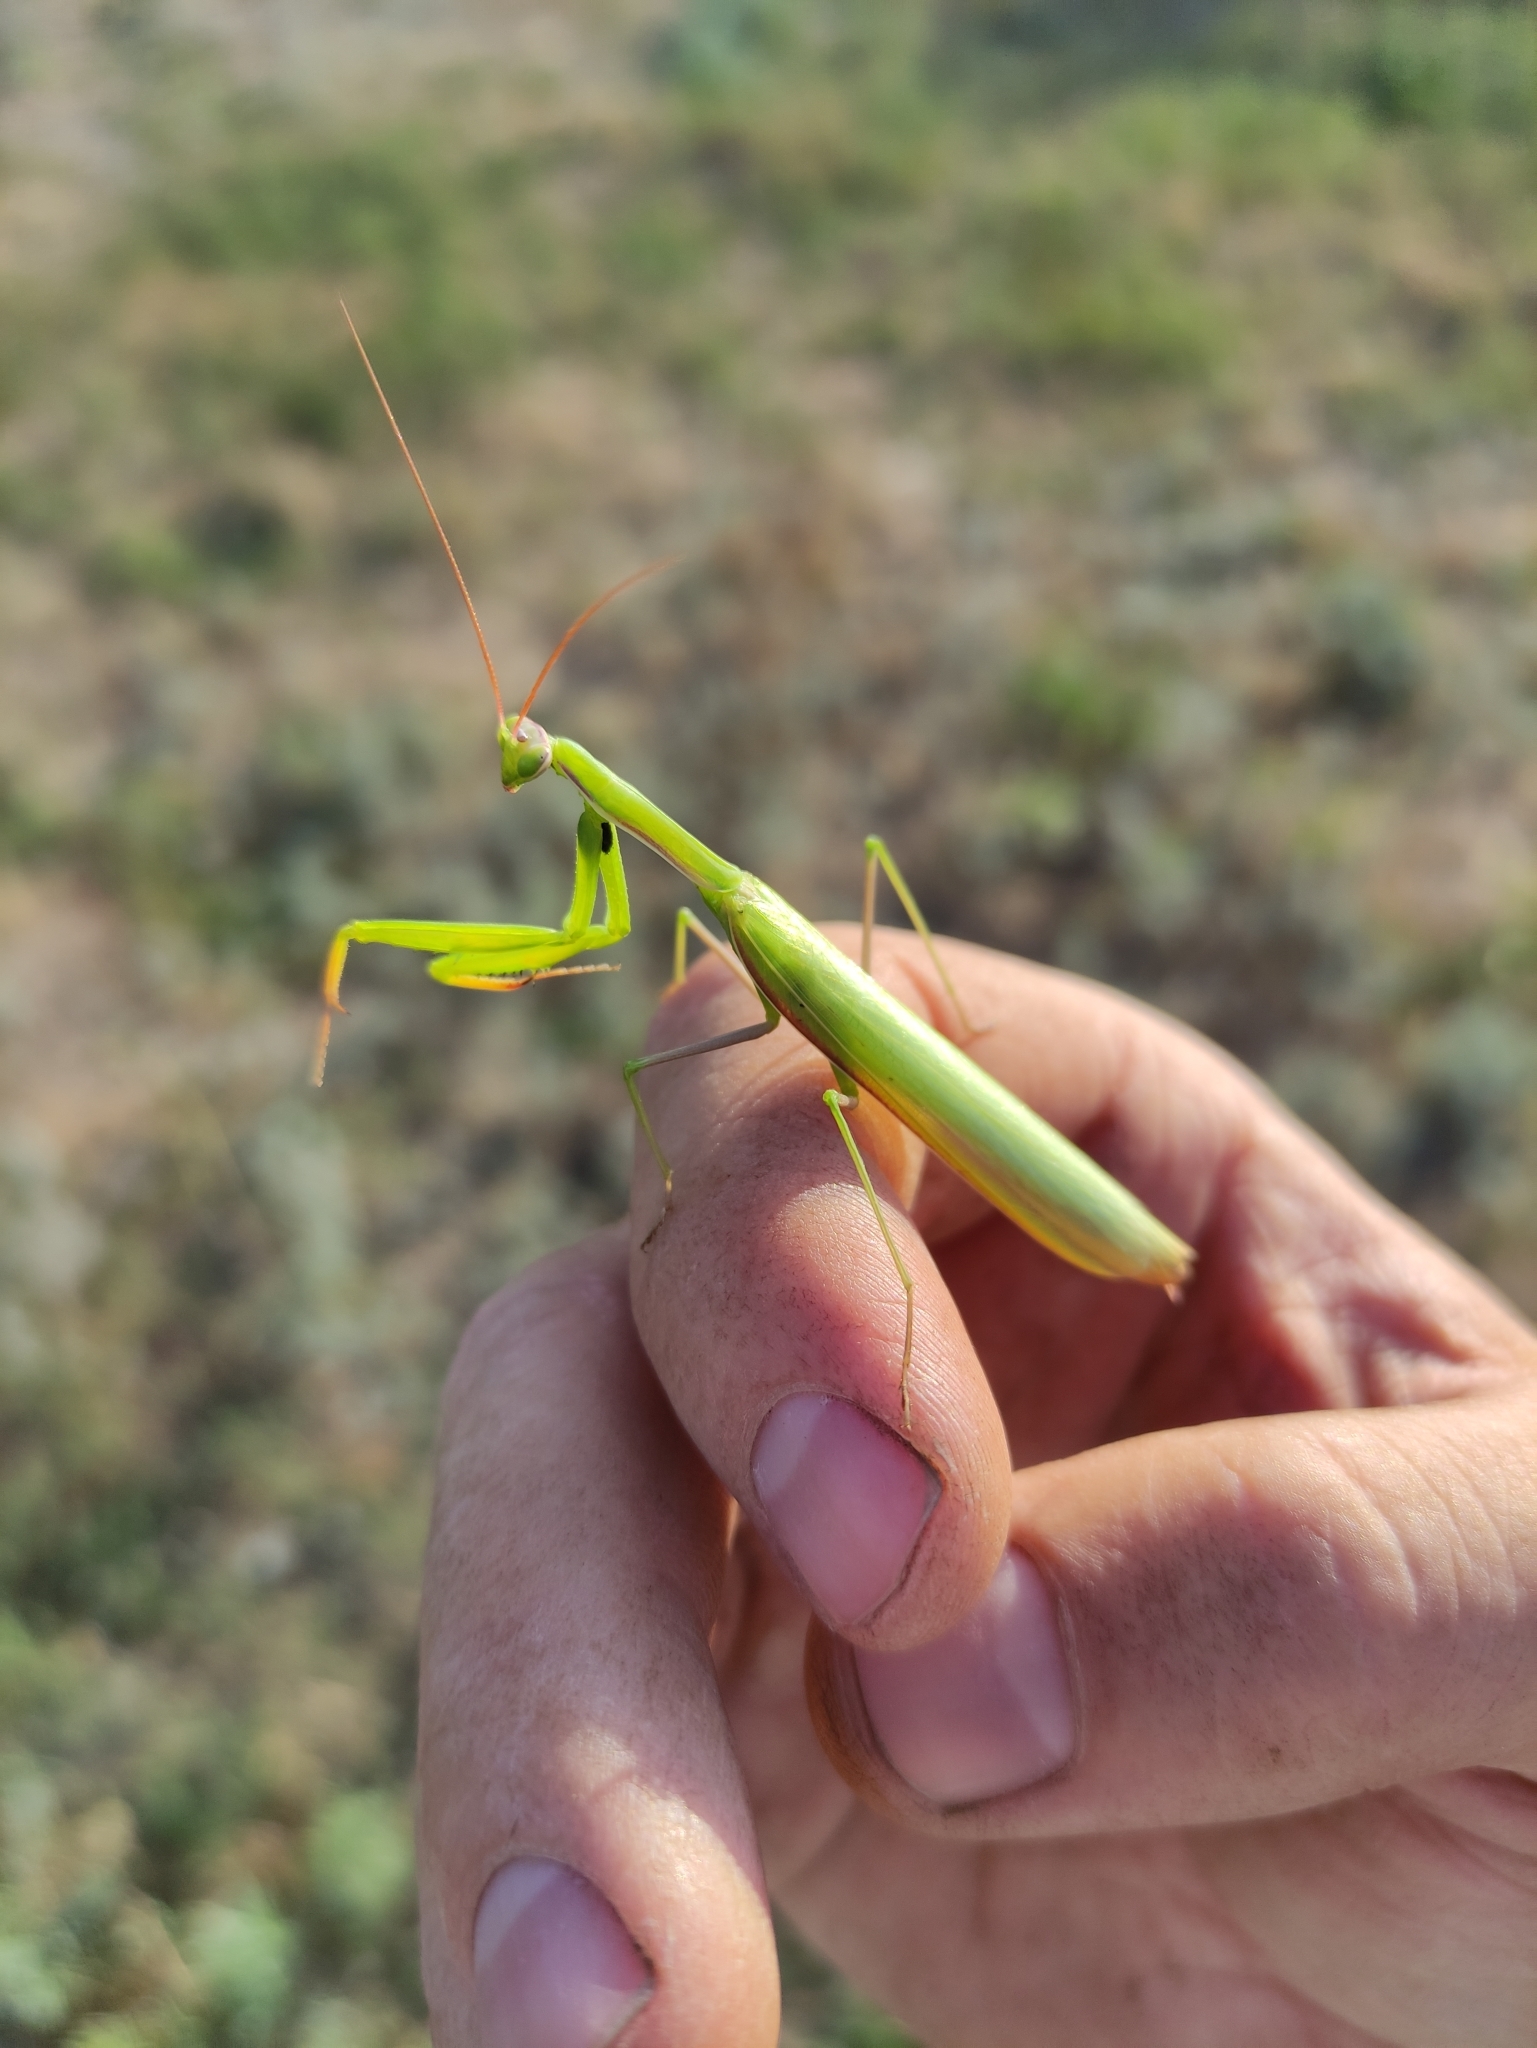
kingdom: Animalia
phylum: Arthropoda
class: Insecta
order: Mantodea
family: Mantidae
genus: Mantis
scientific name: Mantis religiosa
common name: Praying mantis
